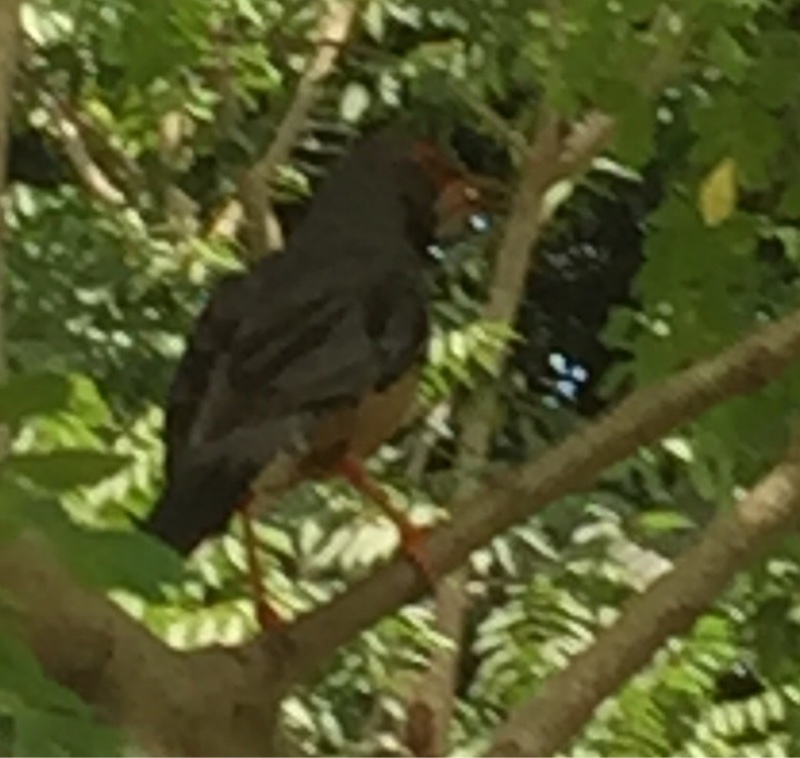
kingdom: Animalia
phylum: Chordata
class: Aves
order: Passeriformes
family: Turdidae
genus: Turdus
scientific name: Turdus plumbeus
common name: Red-legged thrush
